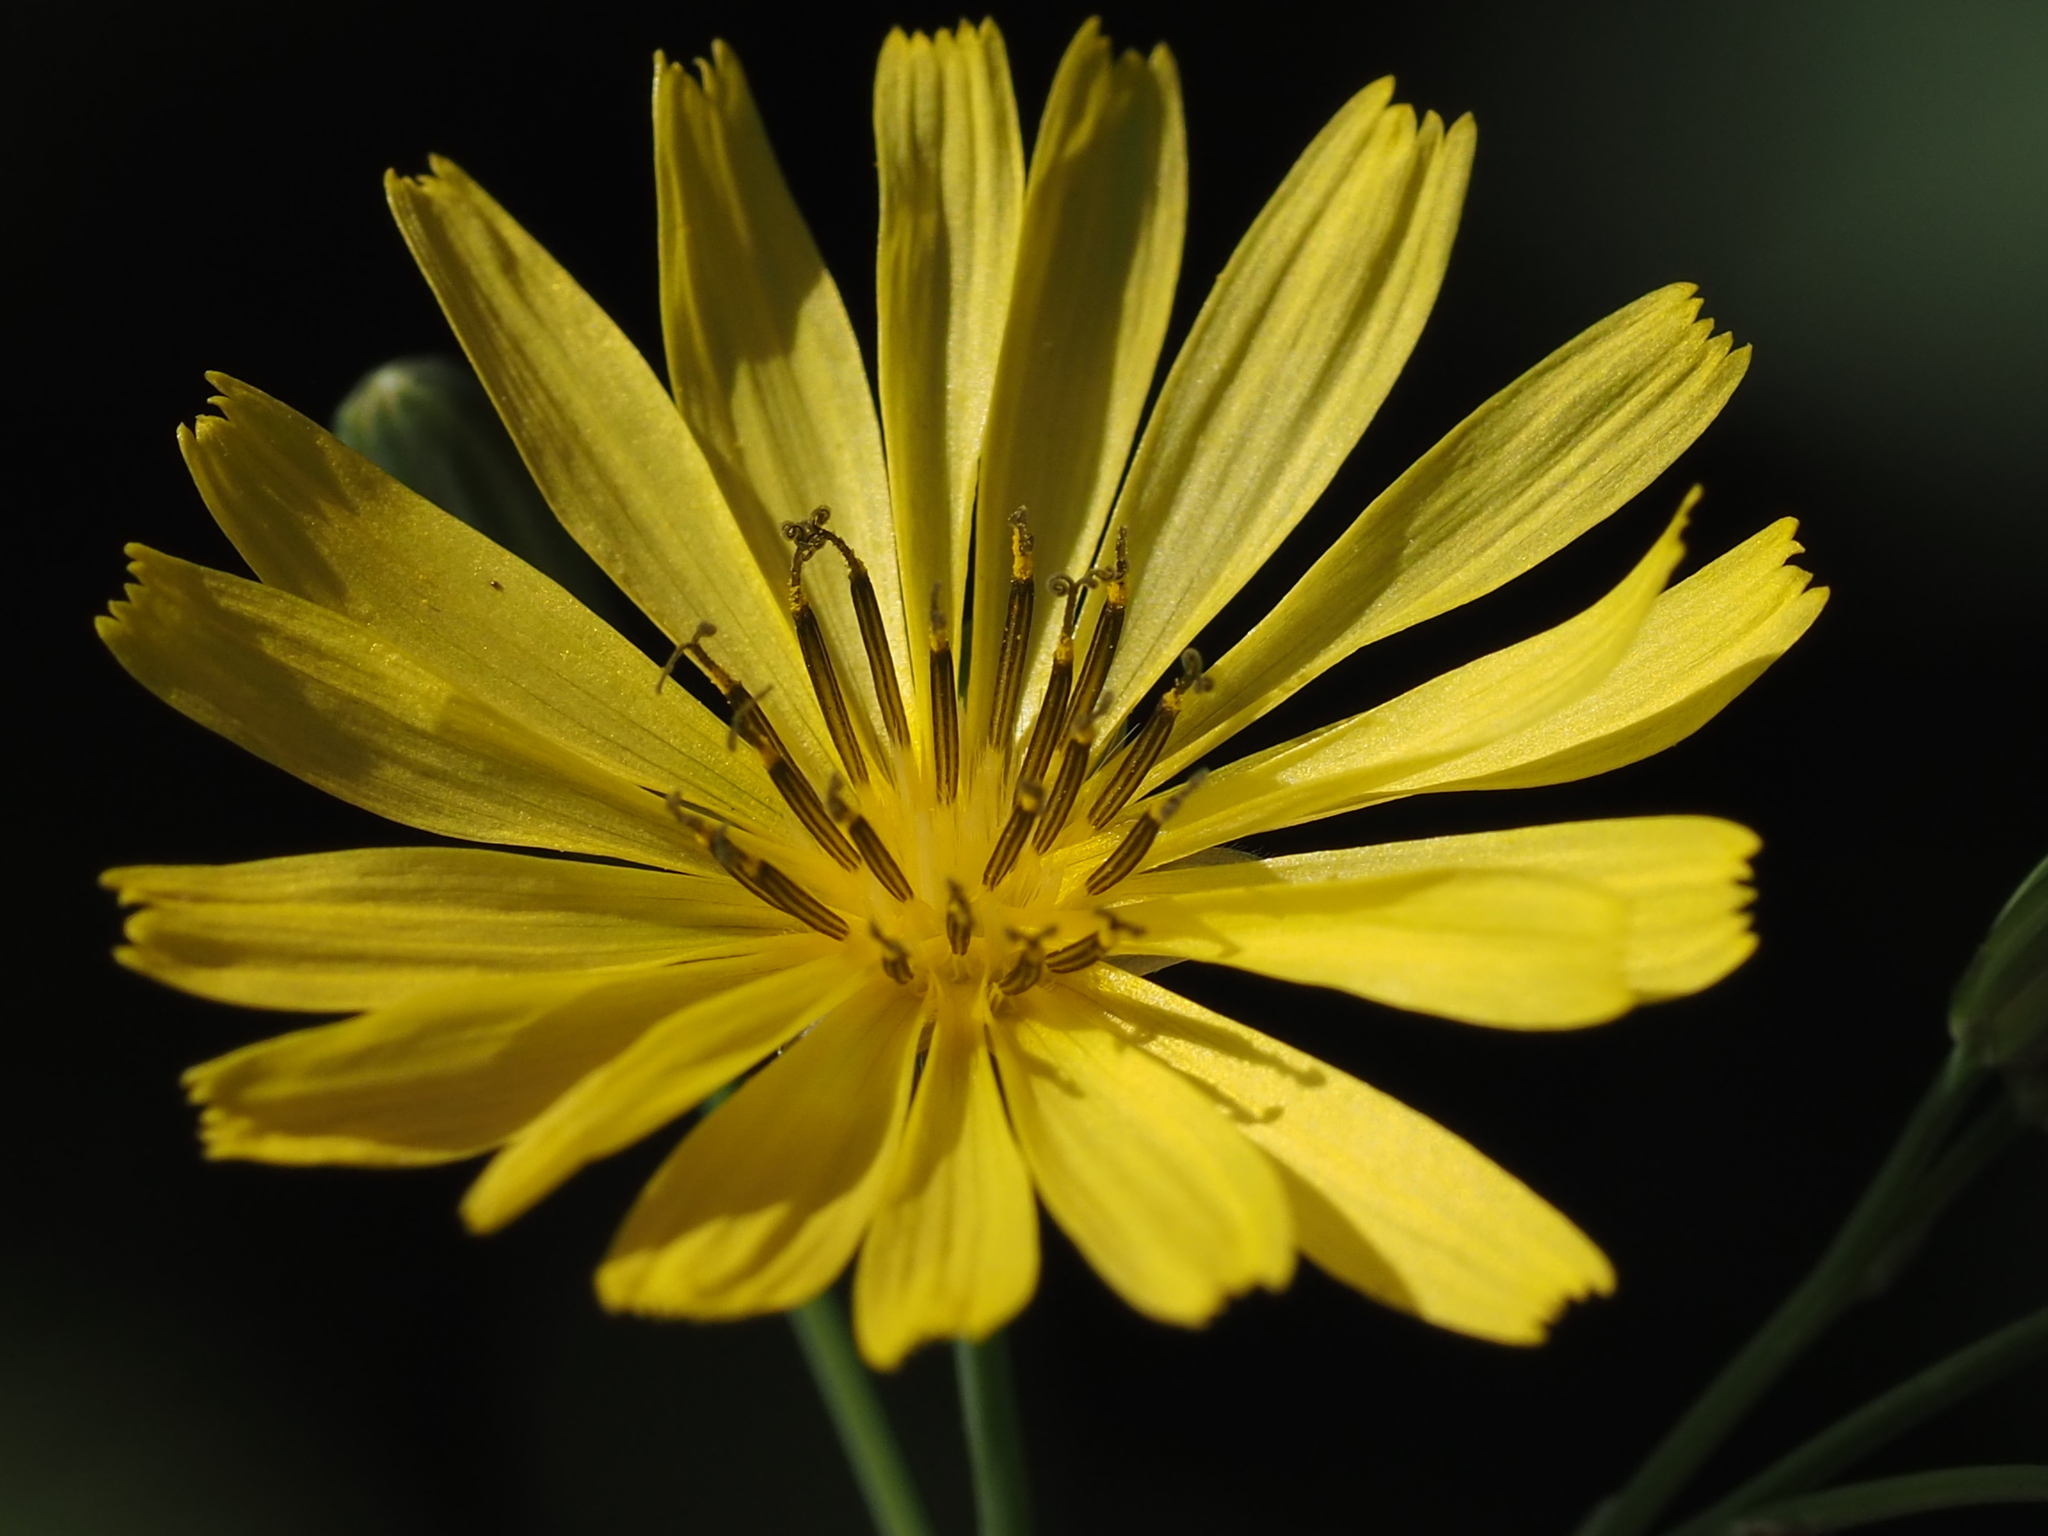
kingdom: Plantae
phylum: Tracheophyta
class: Magnoliopsida
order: Asterales
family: Asteraceae
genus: Ixeris
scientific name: Ixeris chinensis
